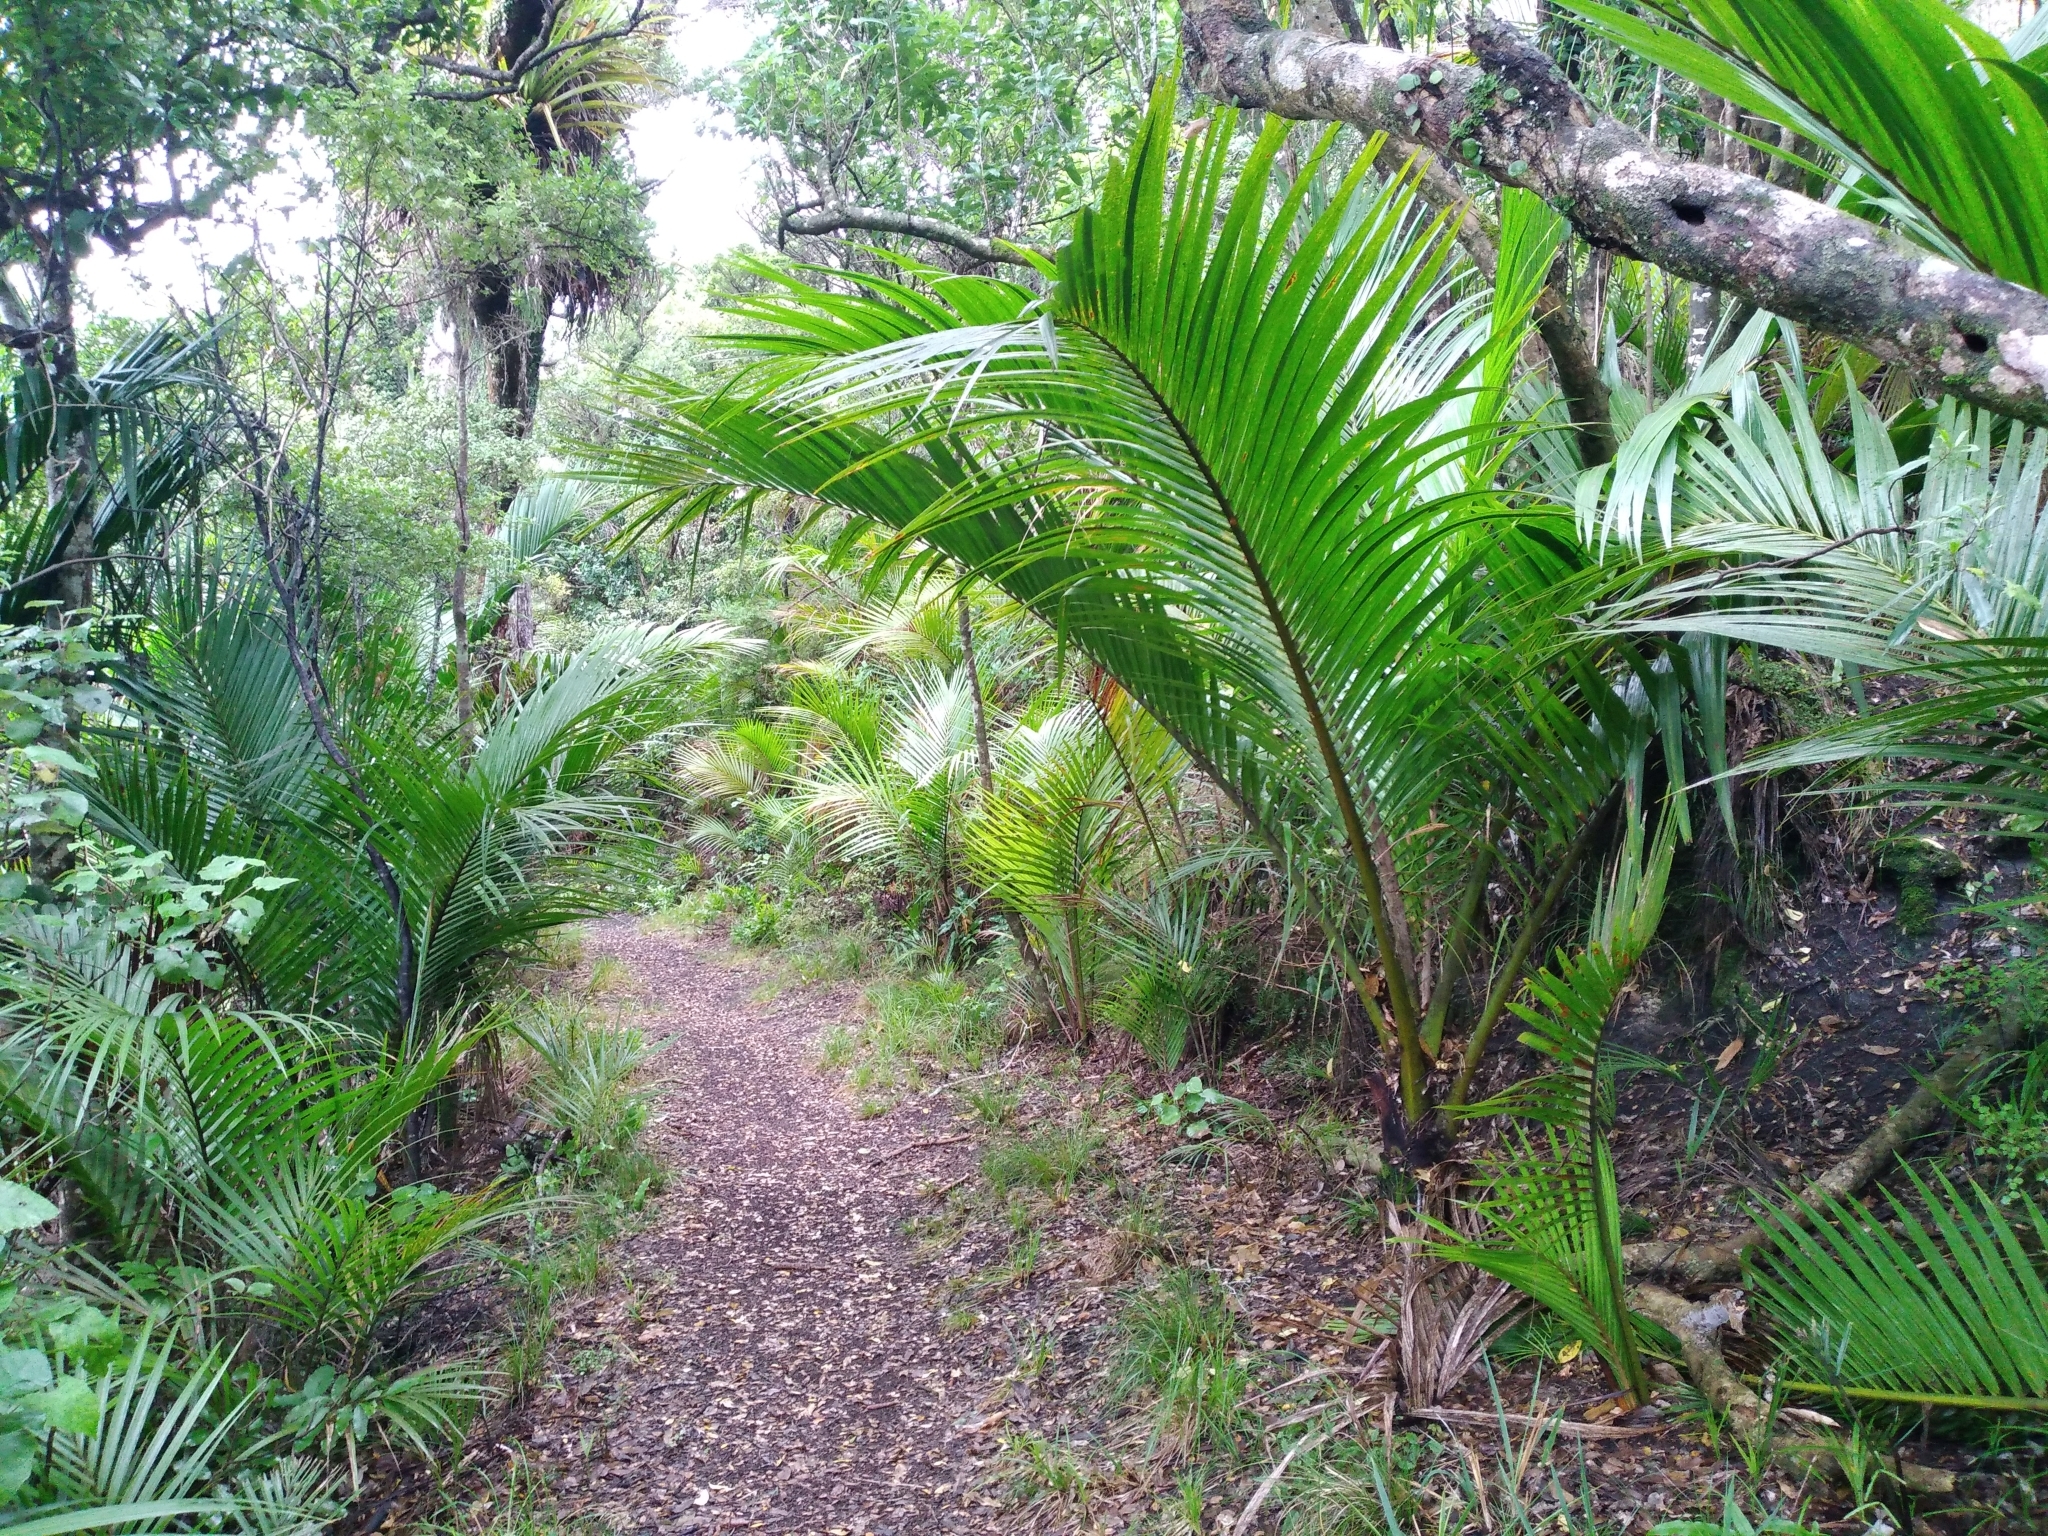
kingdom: Plantae
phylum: Tracheophyta
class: Liliopsida
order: Arecales
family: Arecaceae
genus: Rhopalostylis
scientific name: Rhopalostylis sapida
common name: Feather-duster palm
